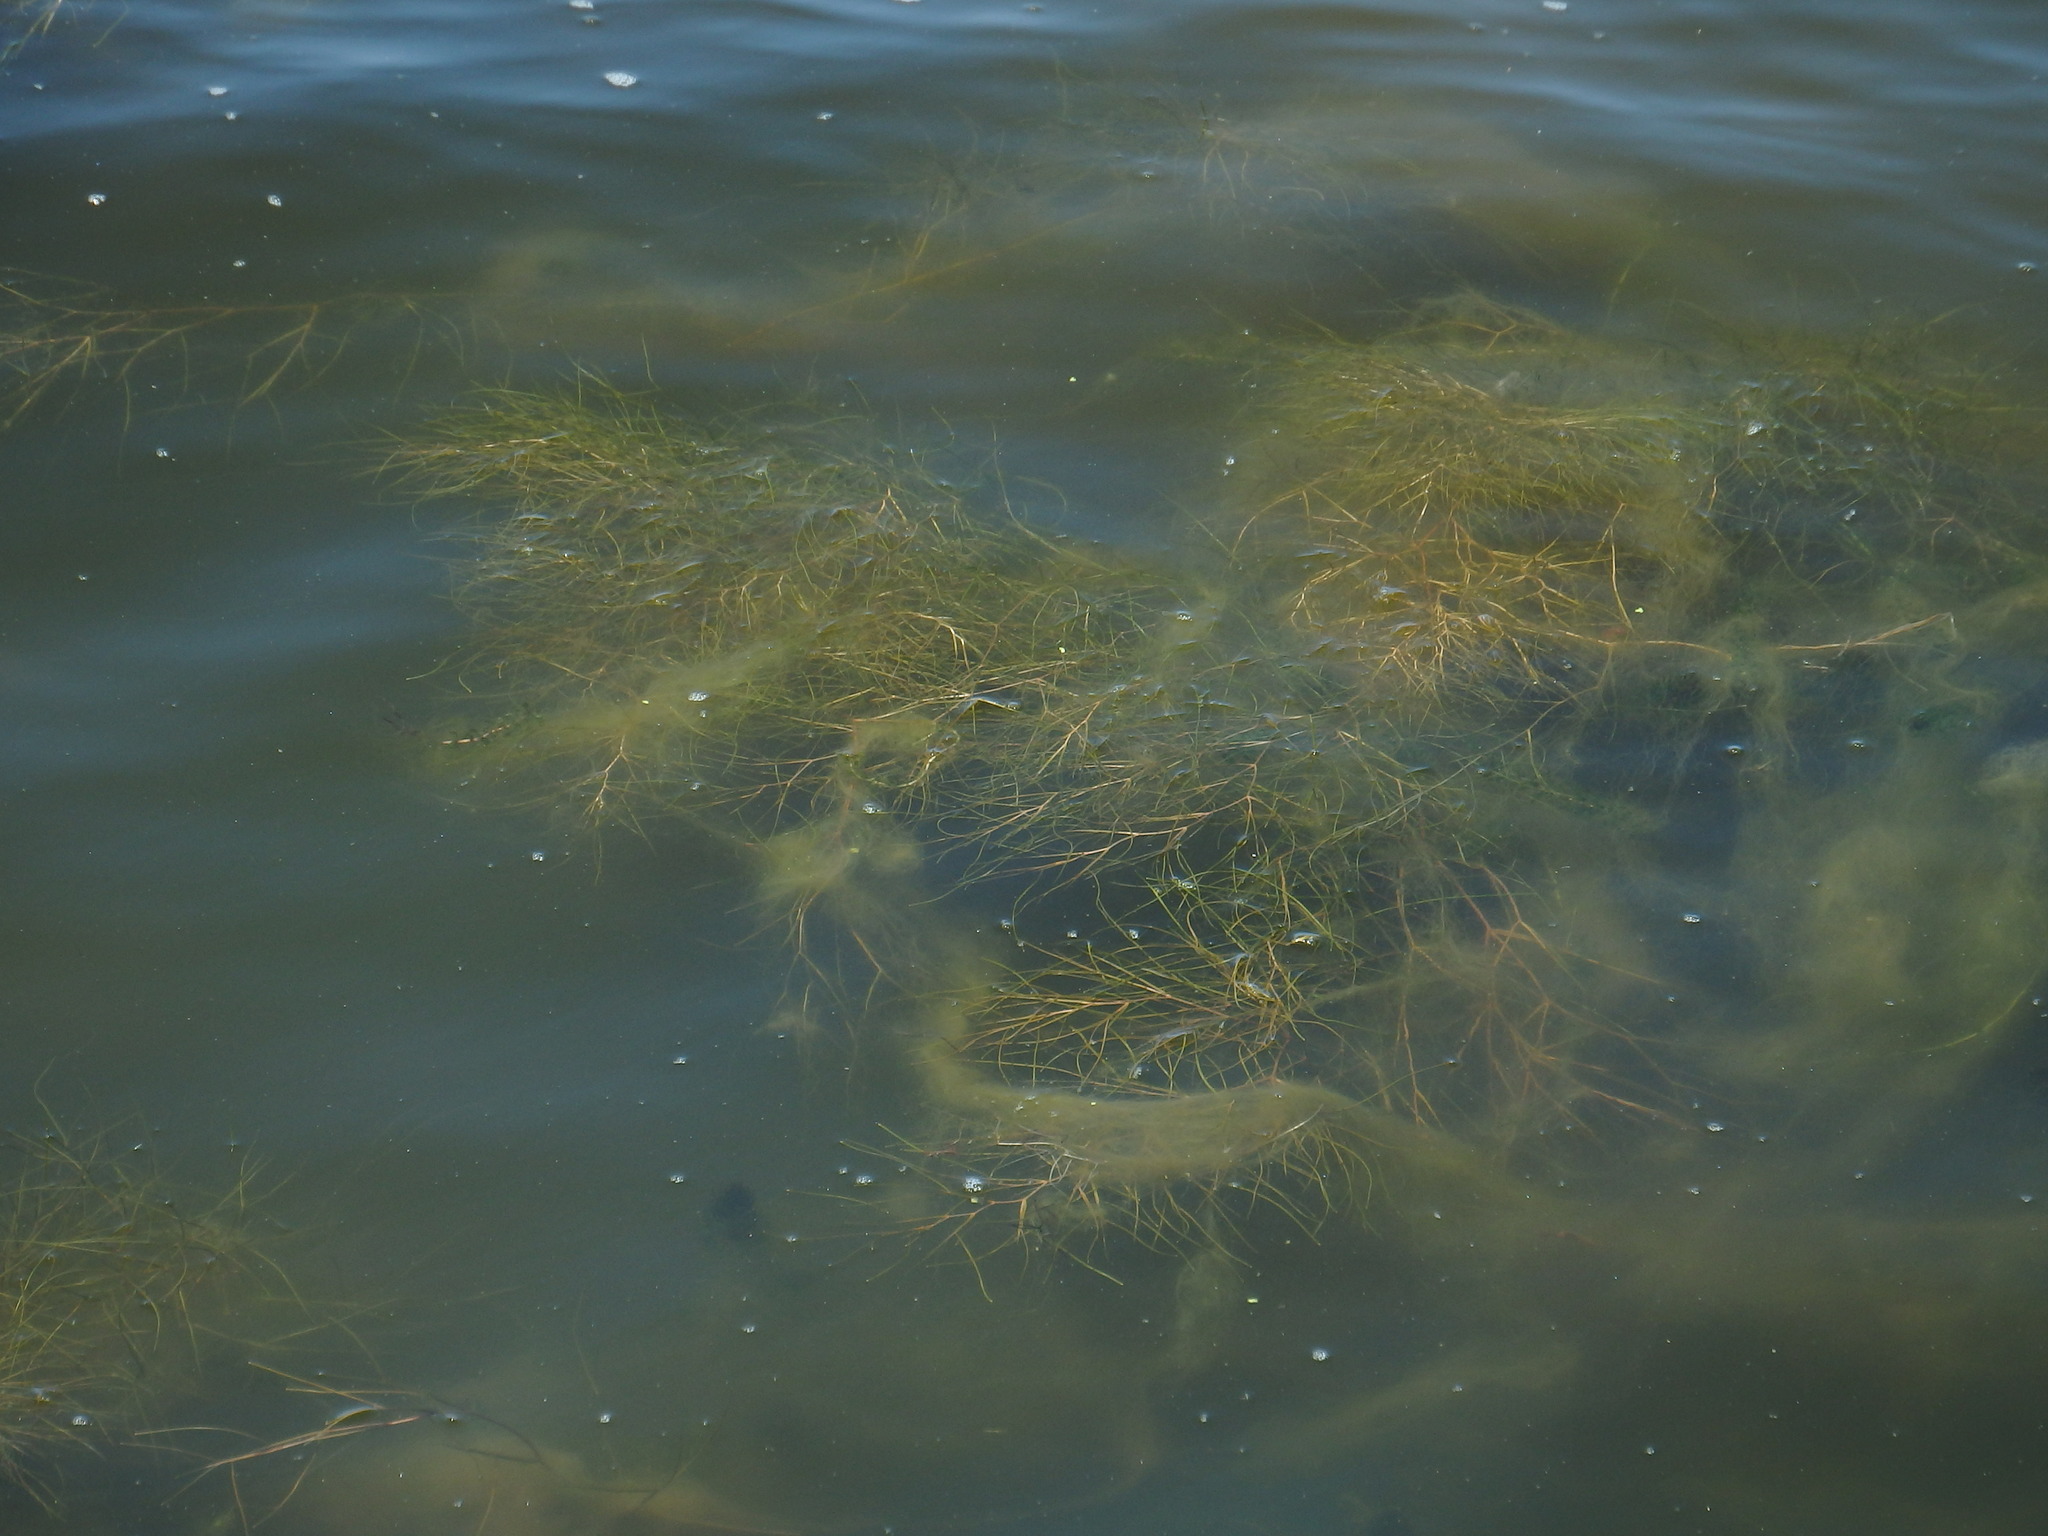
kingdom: Plantae
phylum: Tracheophyta
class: Liliopsida
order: Alismatales
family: Potamogetonaceae
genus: Stuckenia
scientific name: Stuckenia pectinata
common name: Sago pondweed
